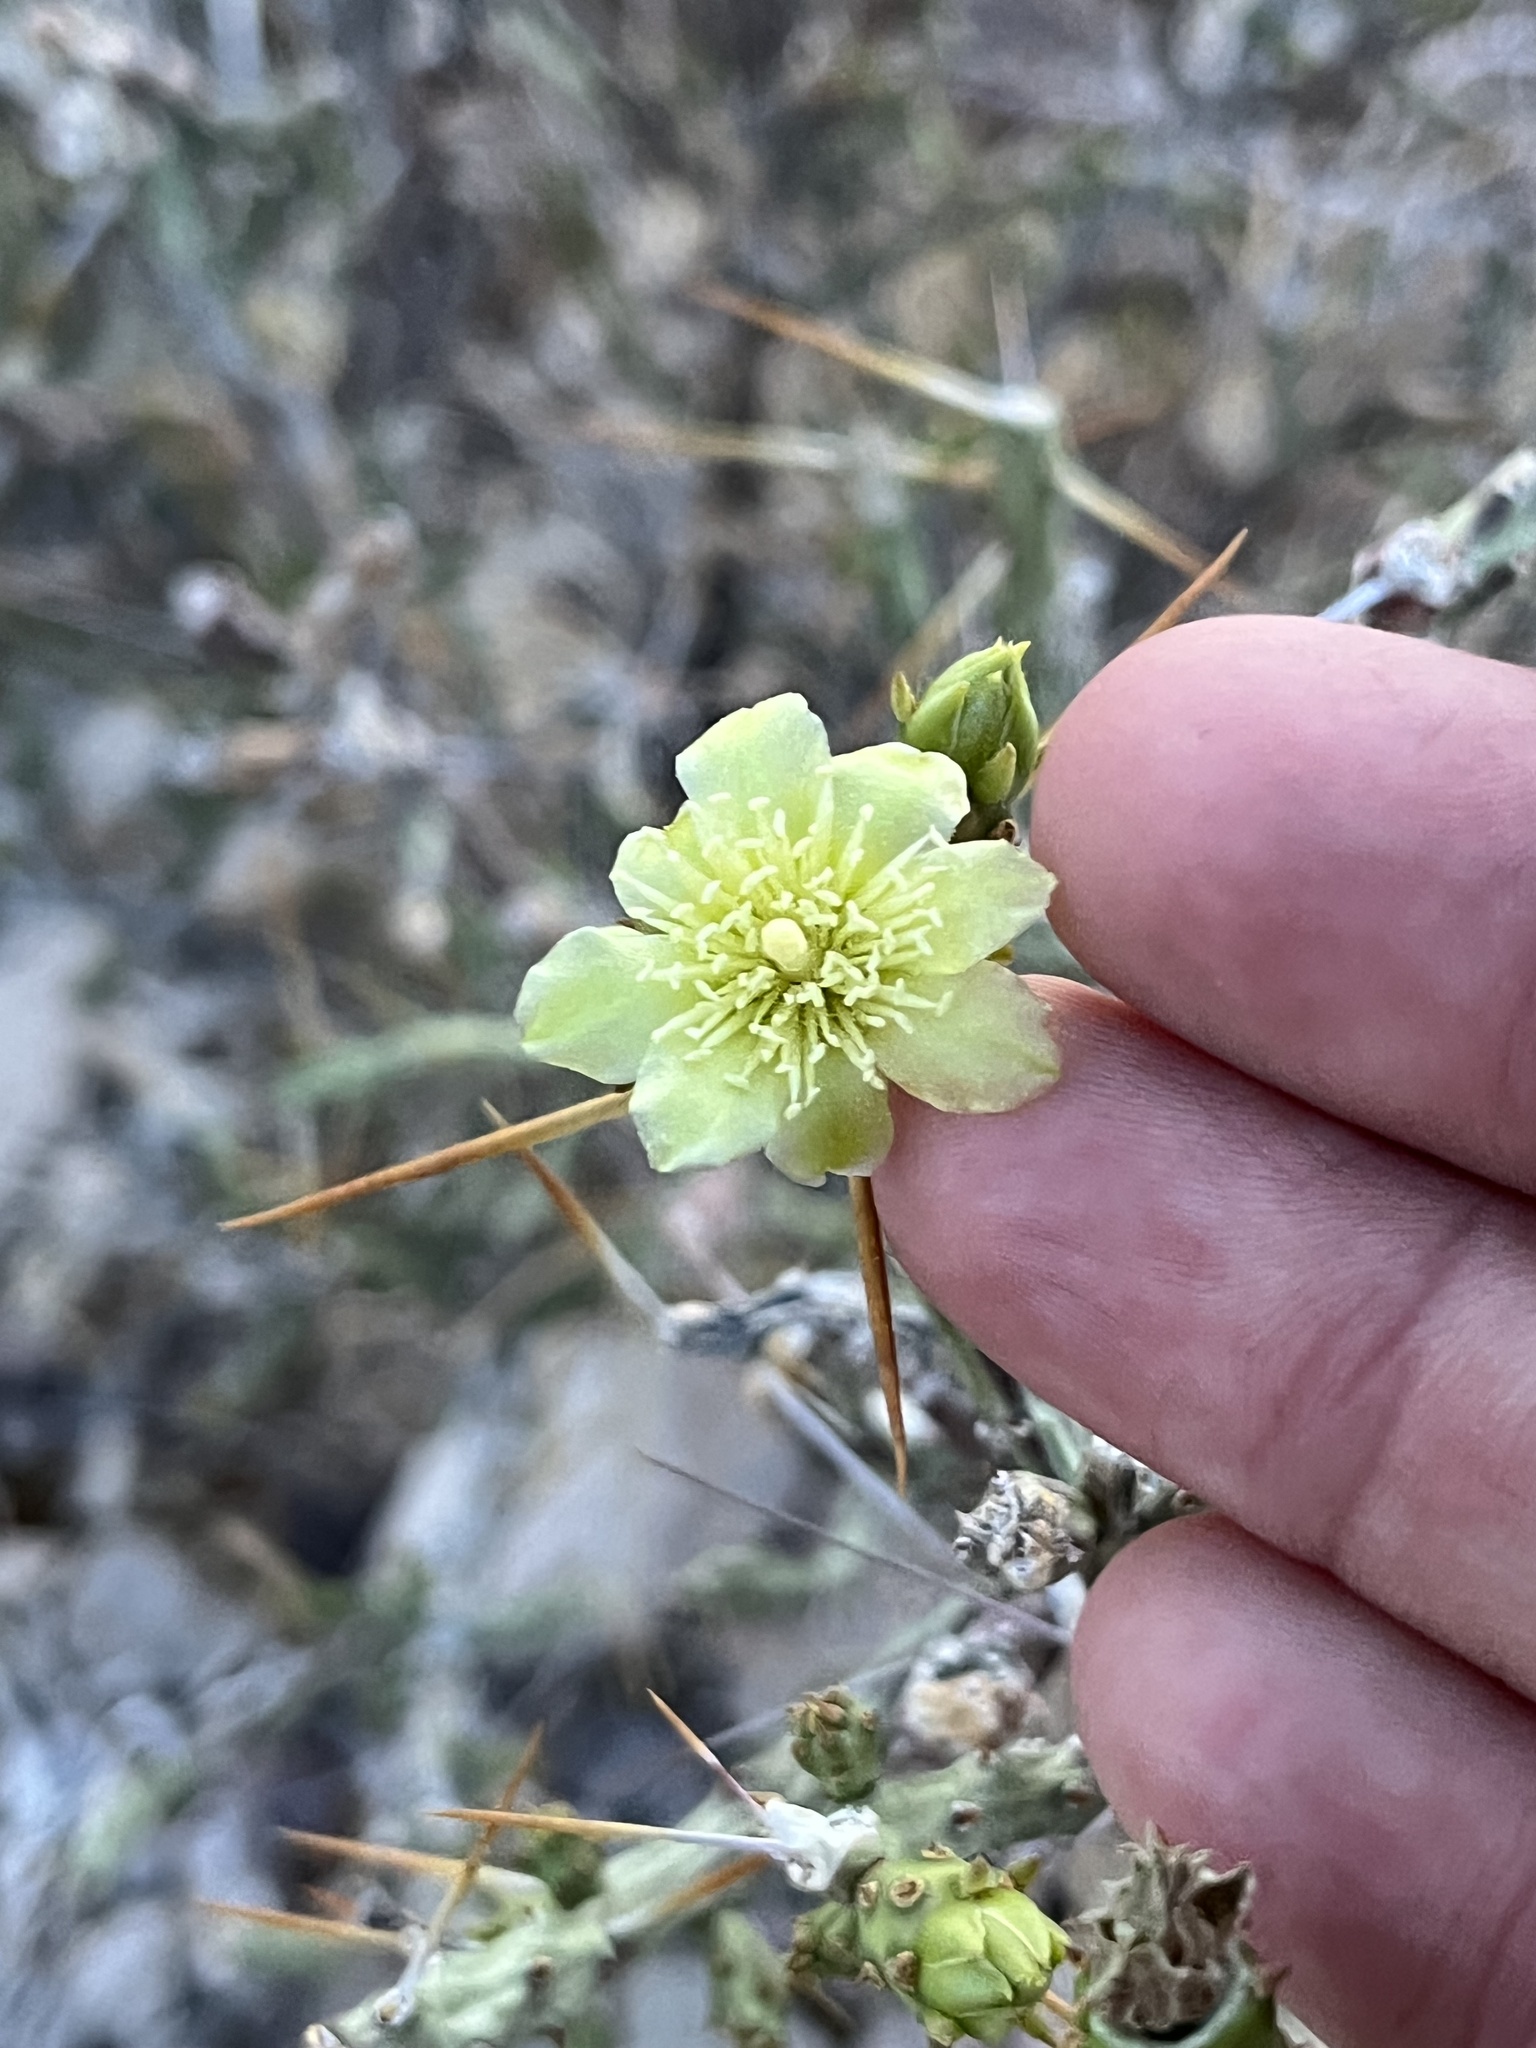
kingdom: Plantae
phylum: Tracheophyta
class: Magnoliopsida
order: Caryophyllales
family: Cactaceae
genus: Cylindropuntia
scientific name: Cylindropuntia leptocaulis
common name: Christmas cactus
